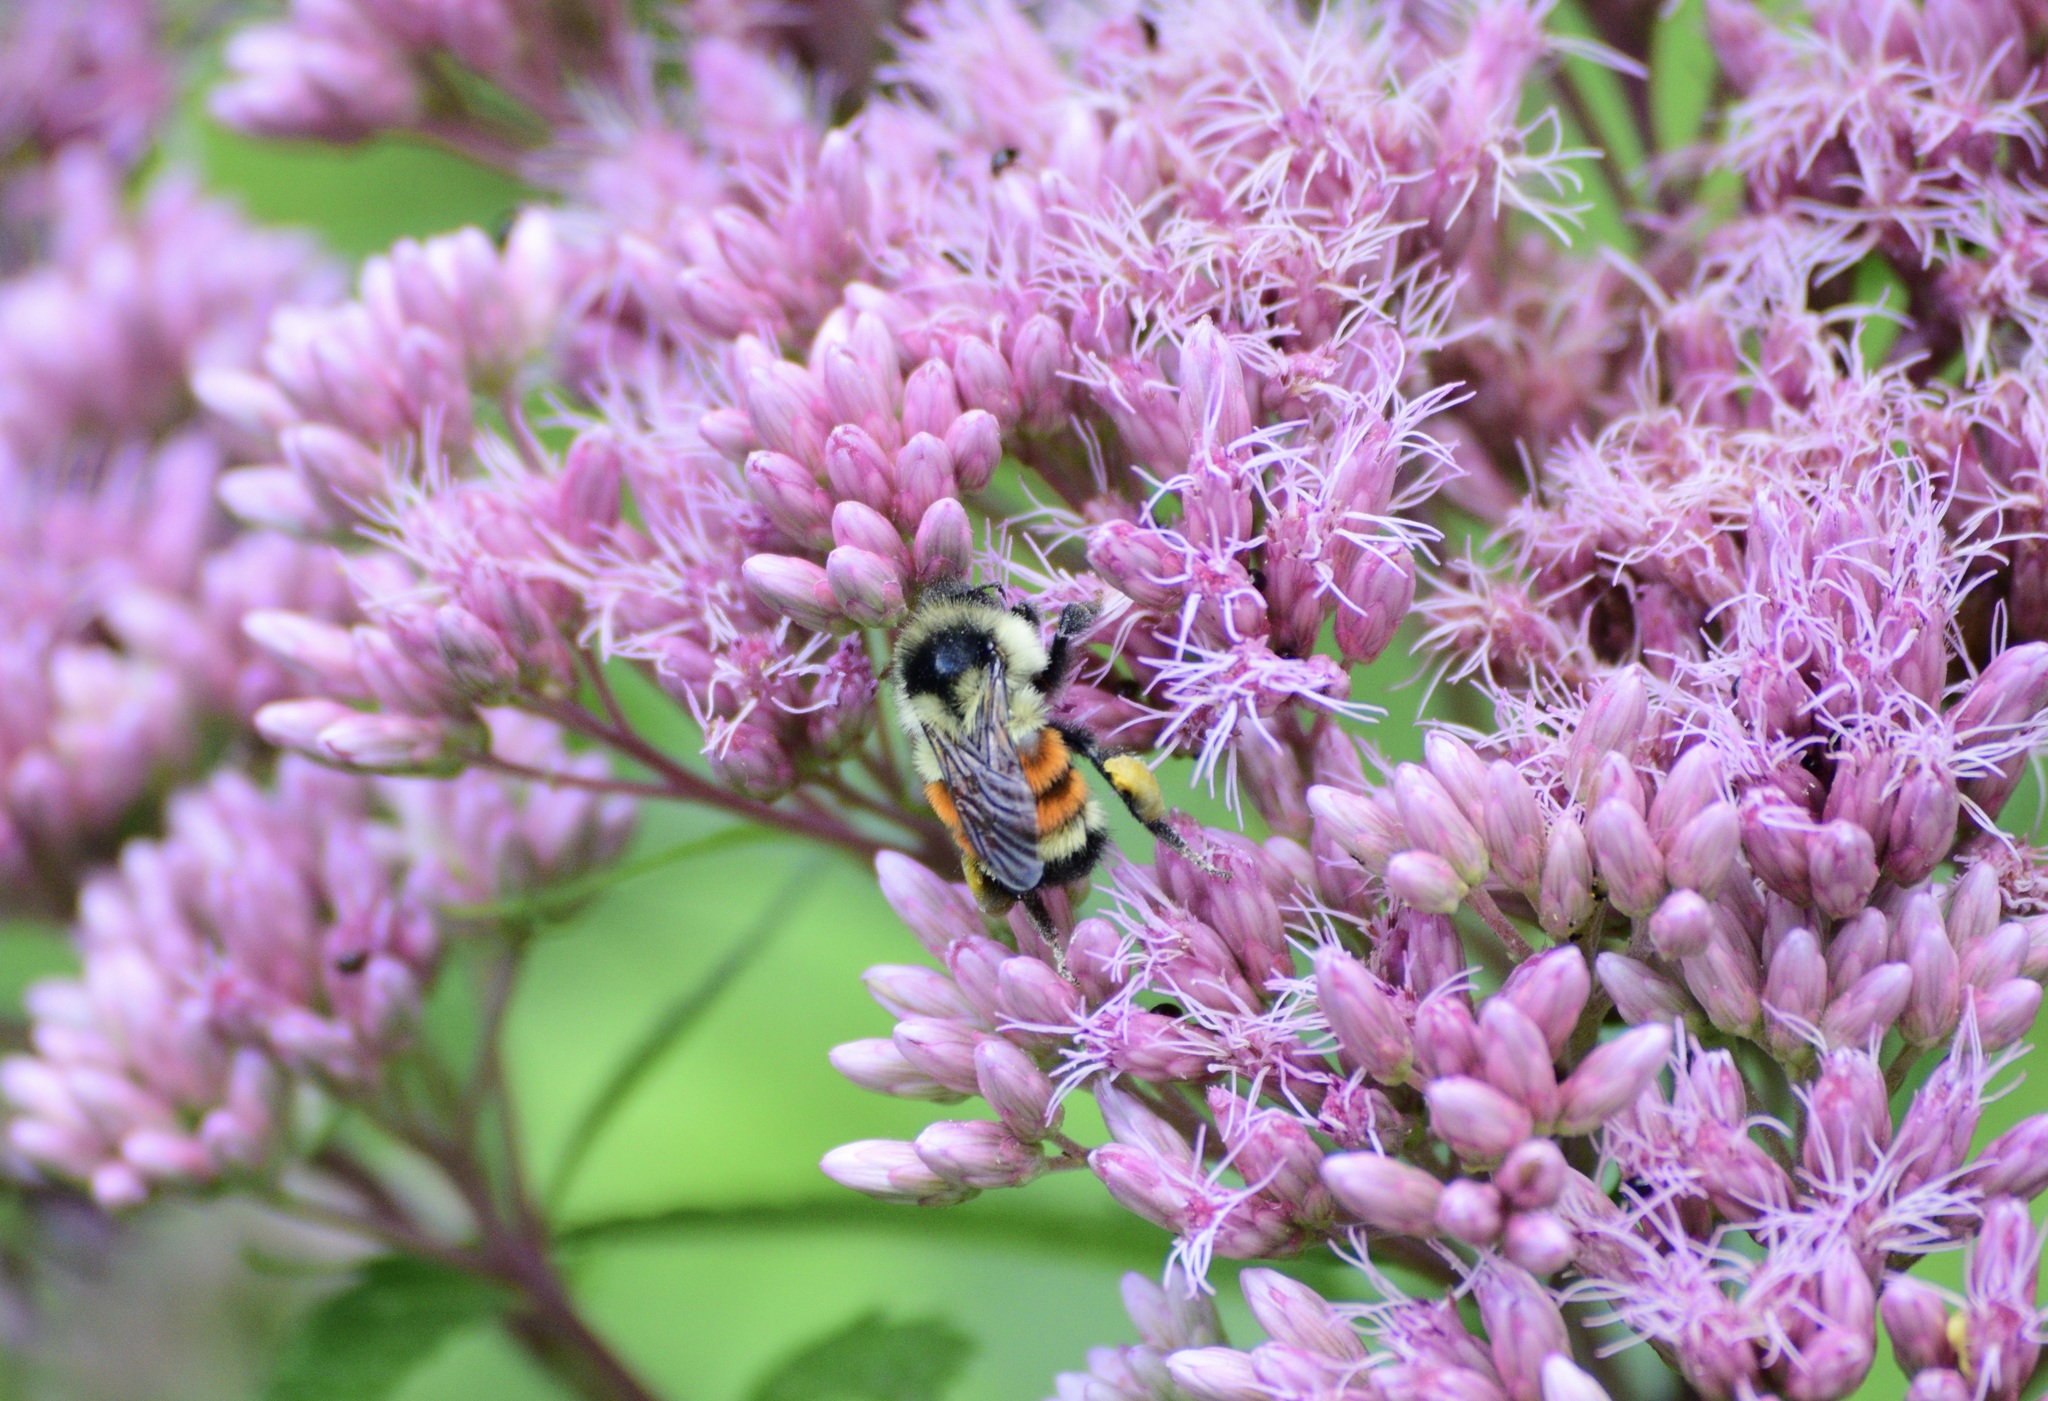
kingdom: Animalia
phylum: Arthropoda
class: Insecta
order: Hymenoptera
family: Apidae
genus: Bombus
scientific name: Bombus ternarius
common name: Tri-colored bumble bee
